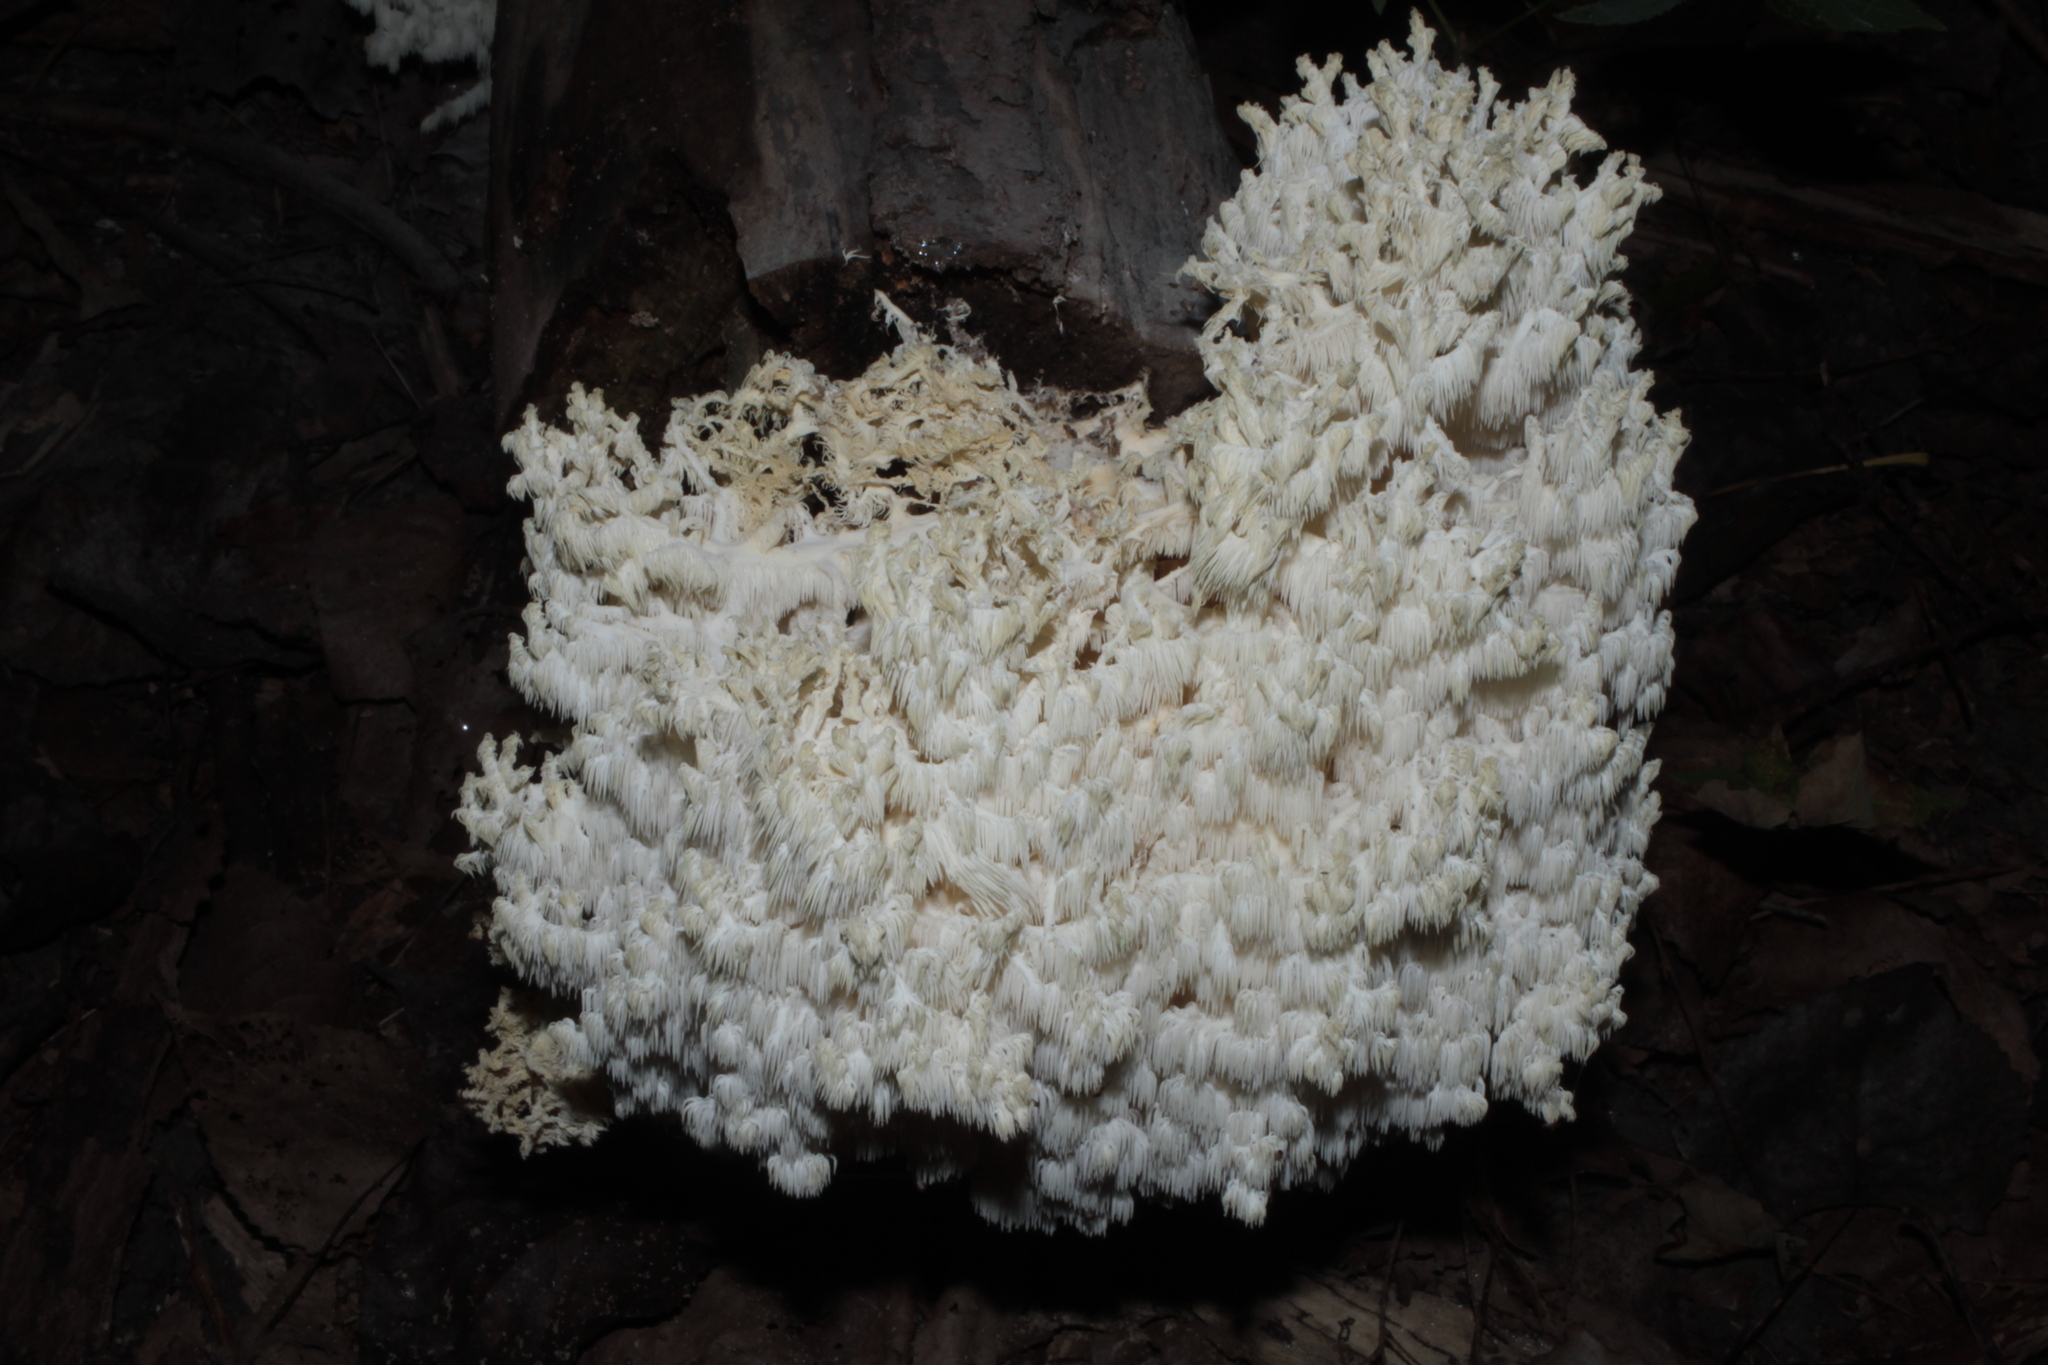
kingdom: Fungi
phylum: Basidiomycota
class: Agaricomycetes
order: Russulales
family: Hericiaceae
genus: Hericium
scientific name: Hericium coralloides
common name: Coral tooth
